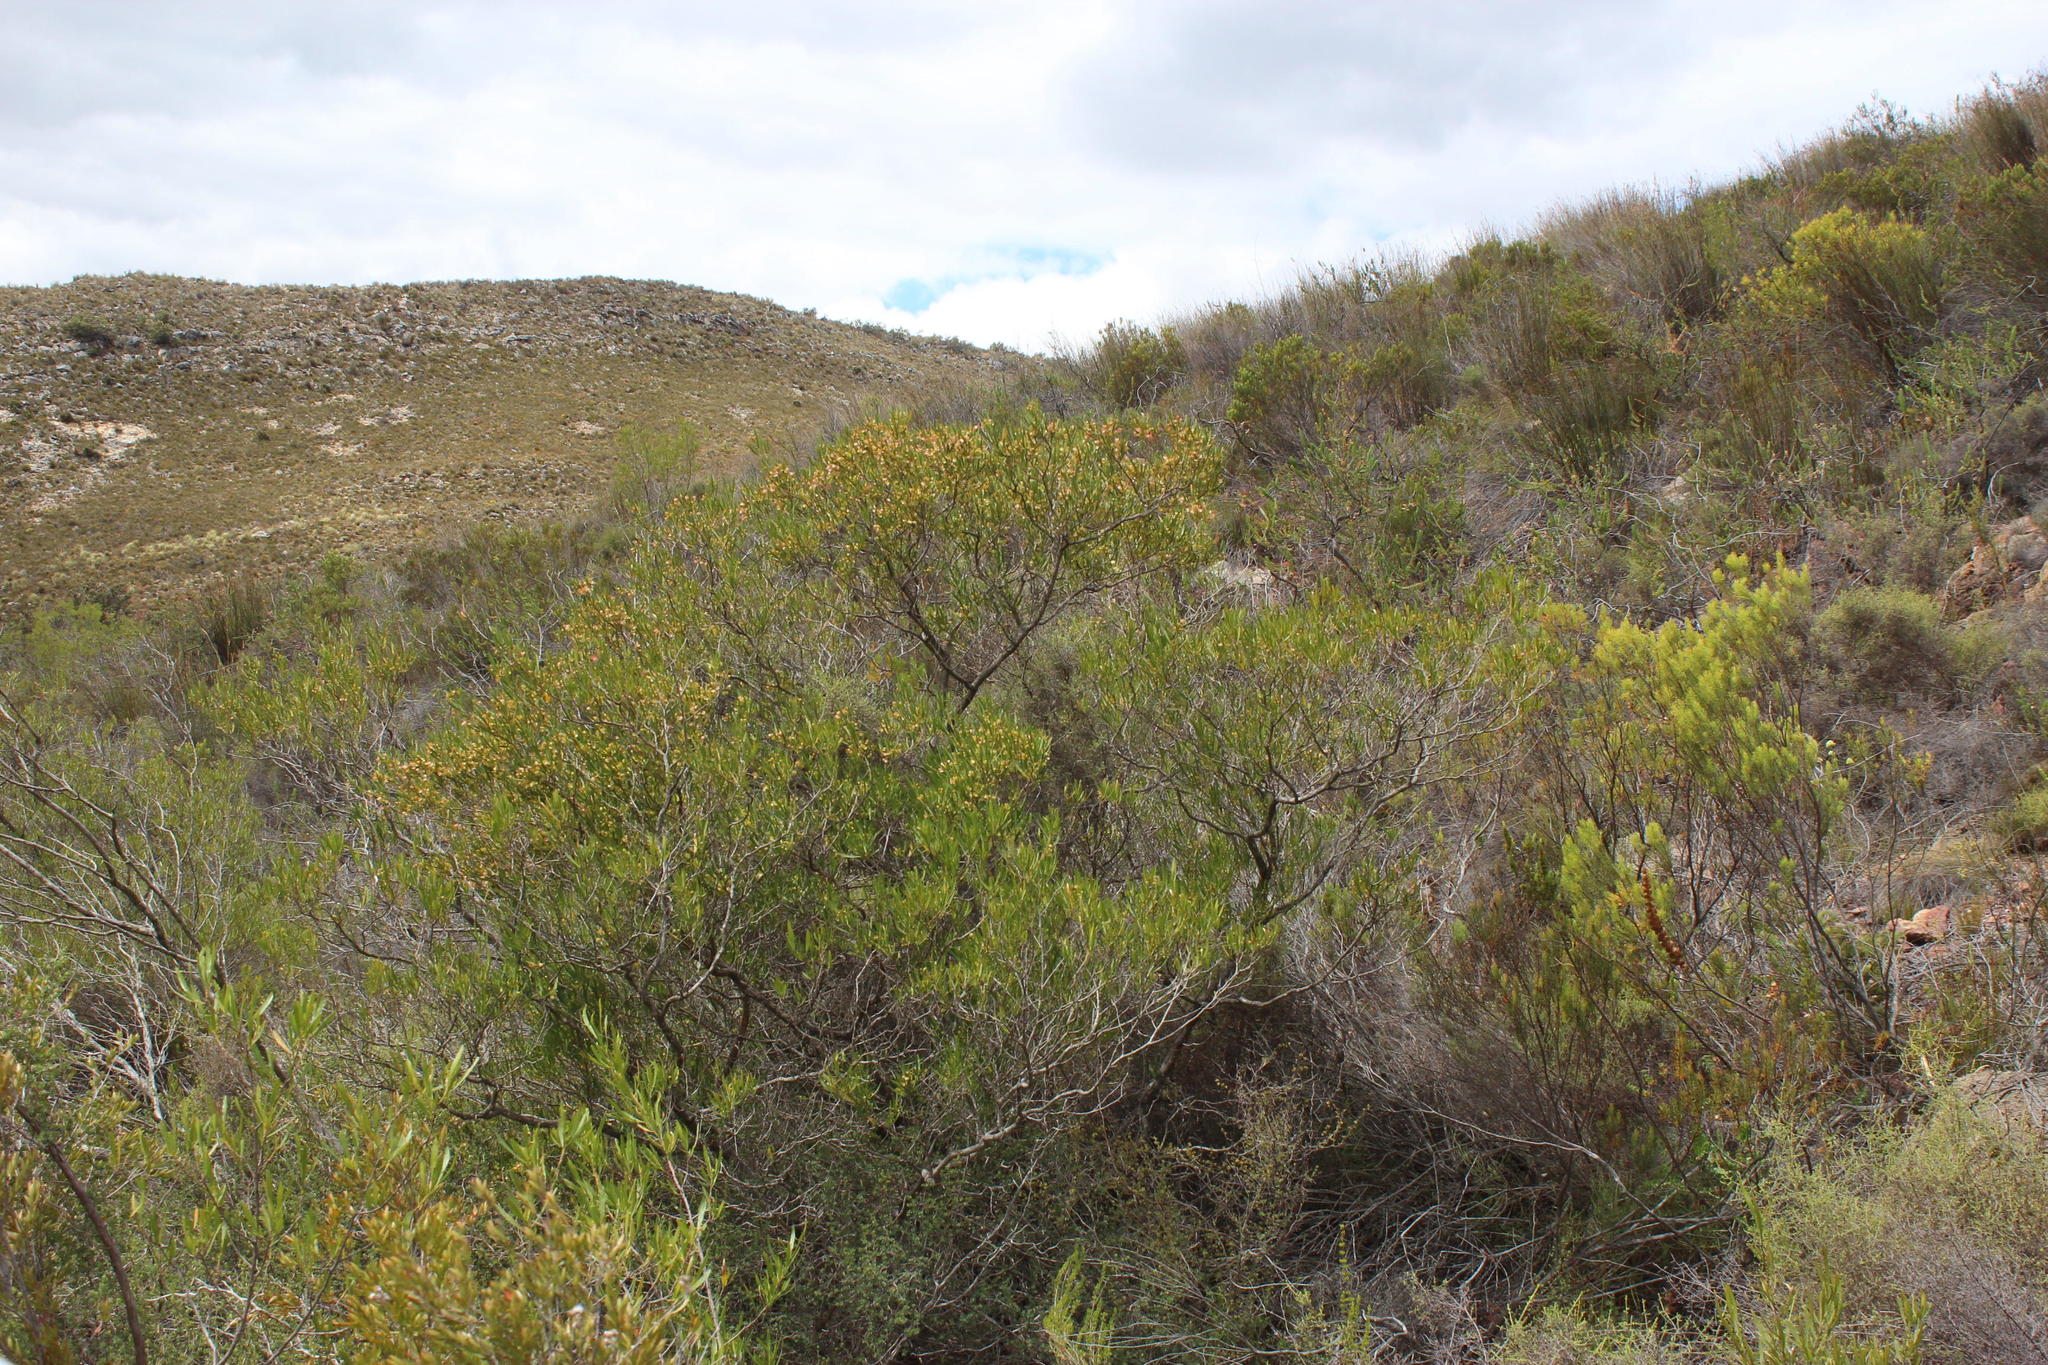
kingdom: Plantae
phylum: Tracheophyta
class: Magnoliopsida
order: Sapindales
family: Sapindaceae
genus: Dodonaea
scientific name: Dodonaea viscosa
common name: Hopbush
